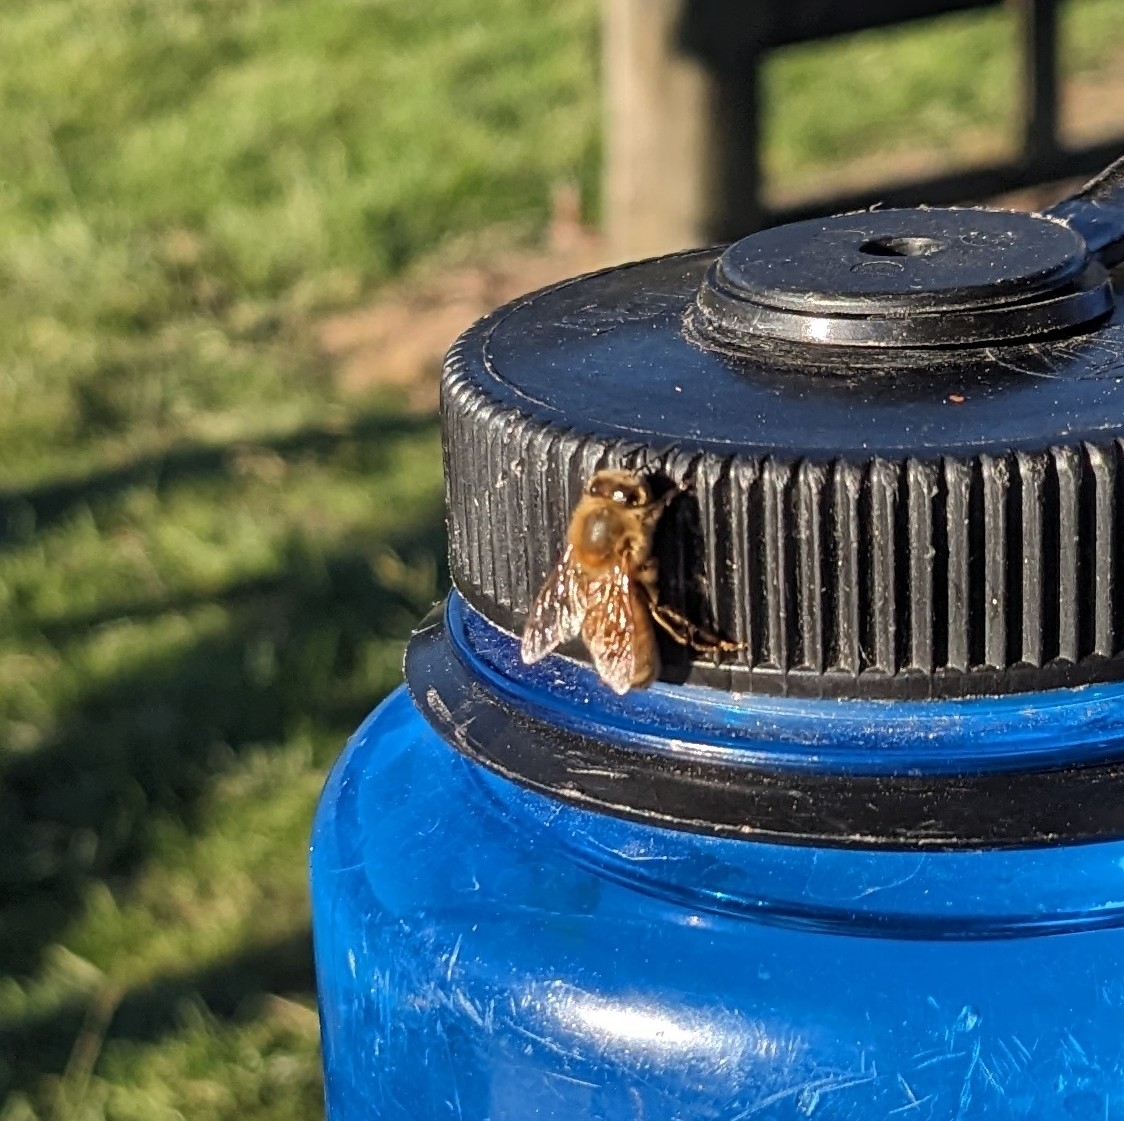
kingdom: Animalia
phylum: Arthropoda
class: Insecta
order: Hymenoptera
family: Apidae
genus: Apis
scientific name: Apis mellifera
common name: Honey bee
